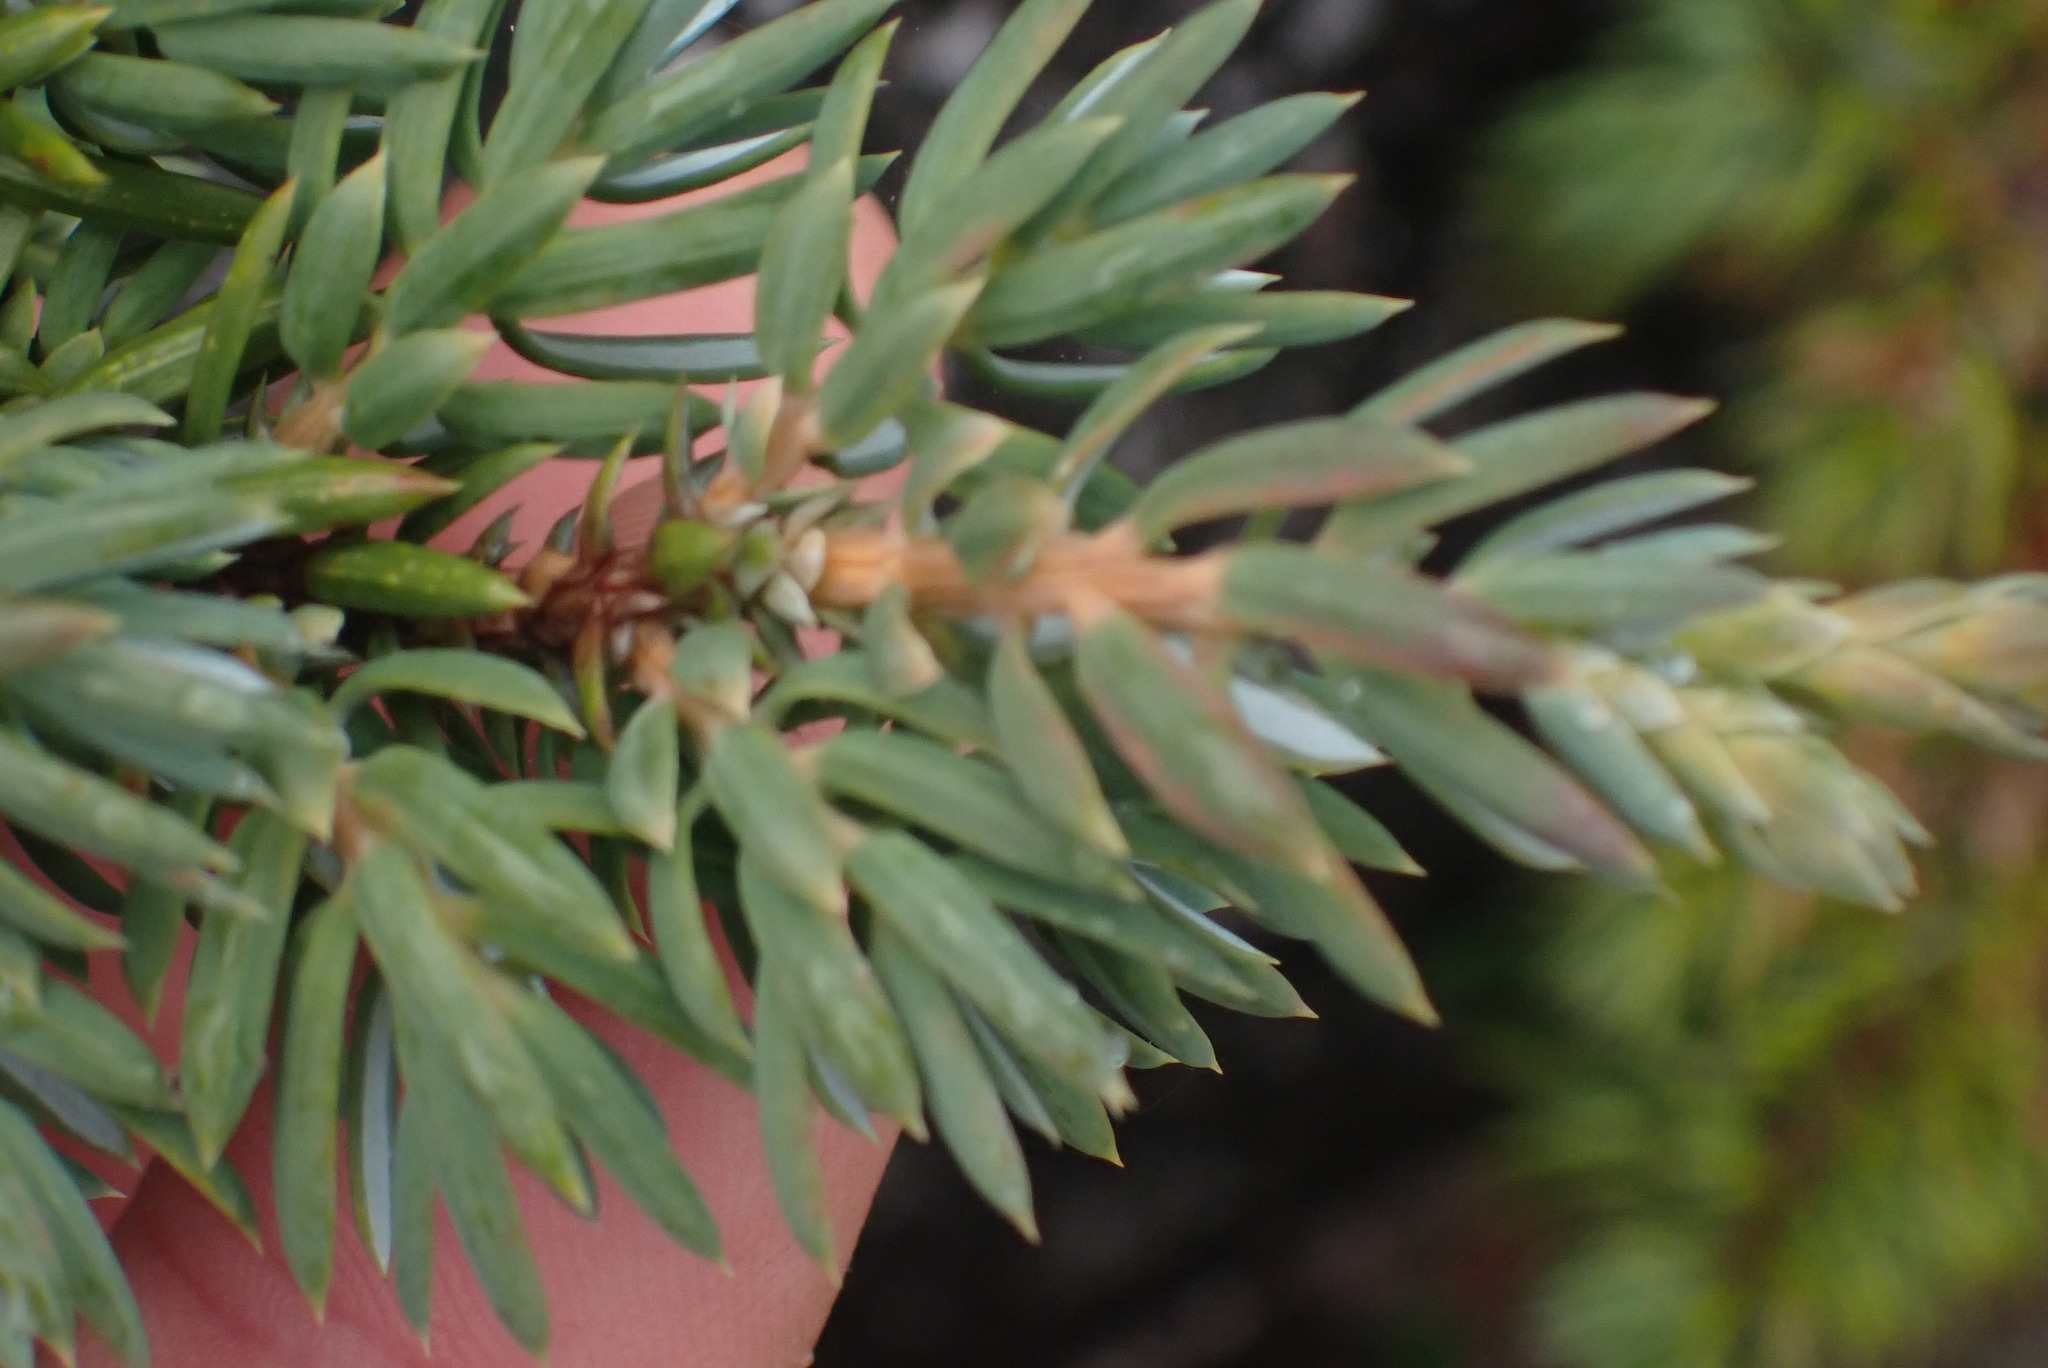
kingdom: Plantae
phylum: Tracheophyta
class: Pinopsida
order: Pinales
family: Cupressaceae
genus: Juniperus
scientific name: Juniperus communis
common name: Common juniper
